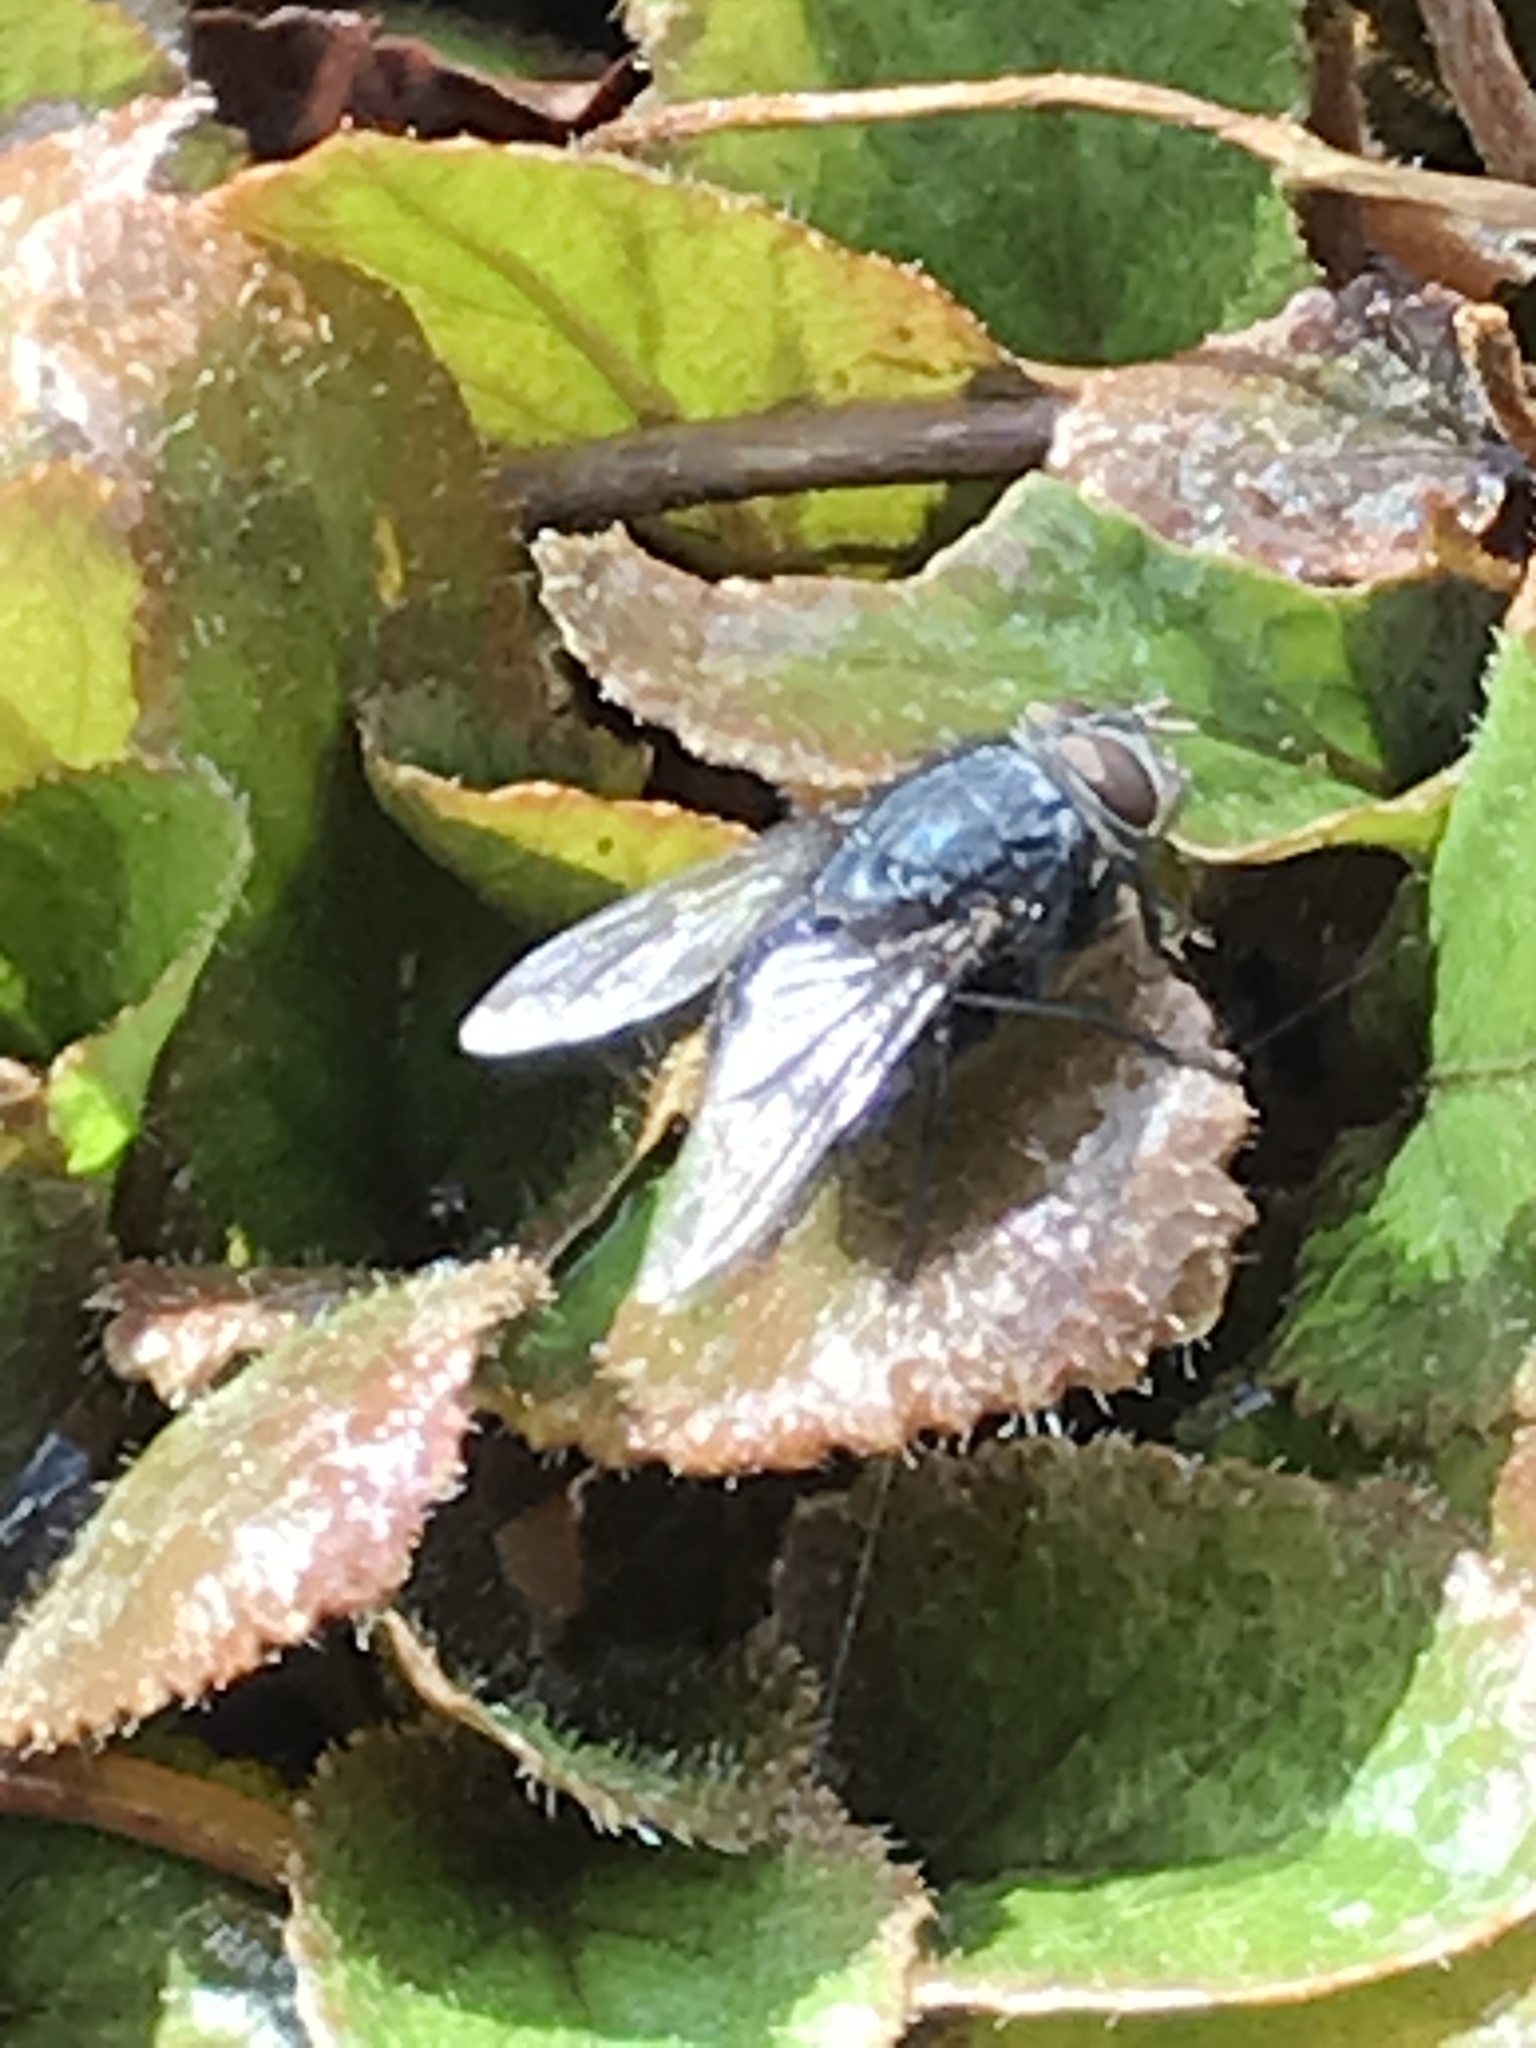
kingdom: Animalia
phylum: Arthropoda
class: Insecta
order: Diptera
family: Calliphoridae
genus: Calliphora
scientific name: Calliphora vicina
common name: Common blow flie
